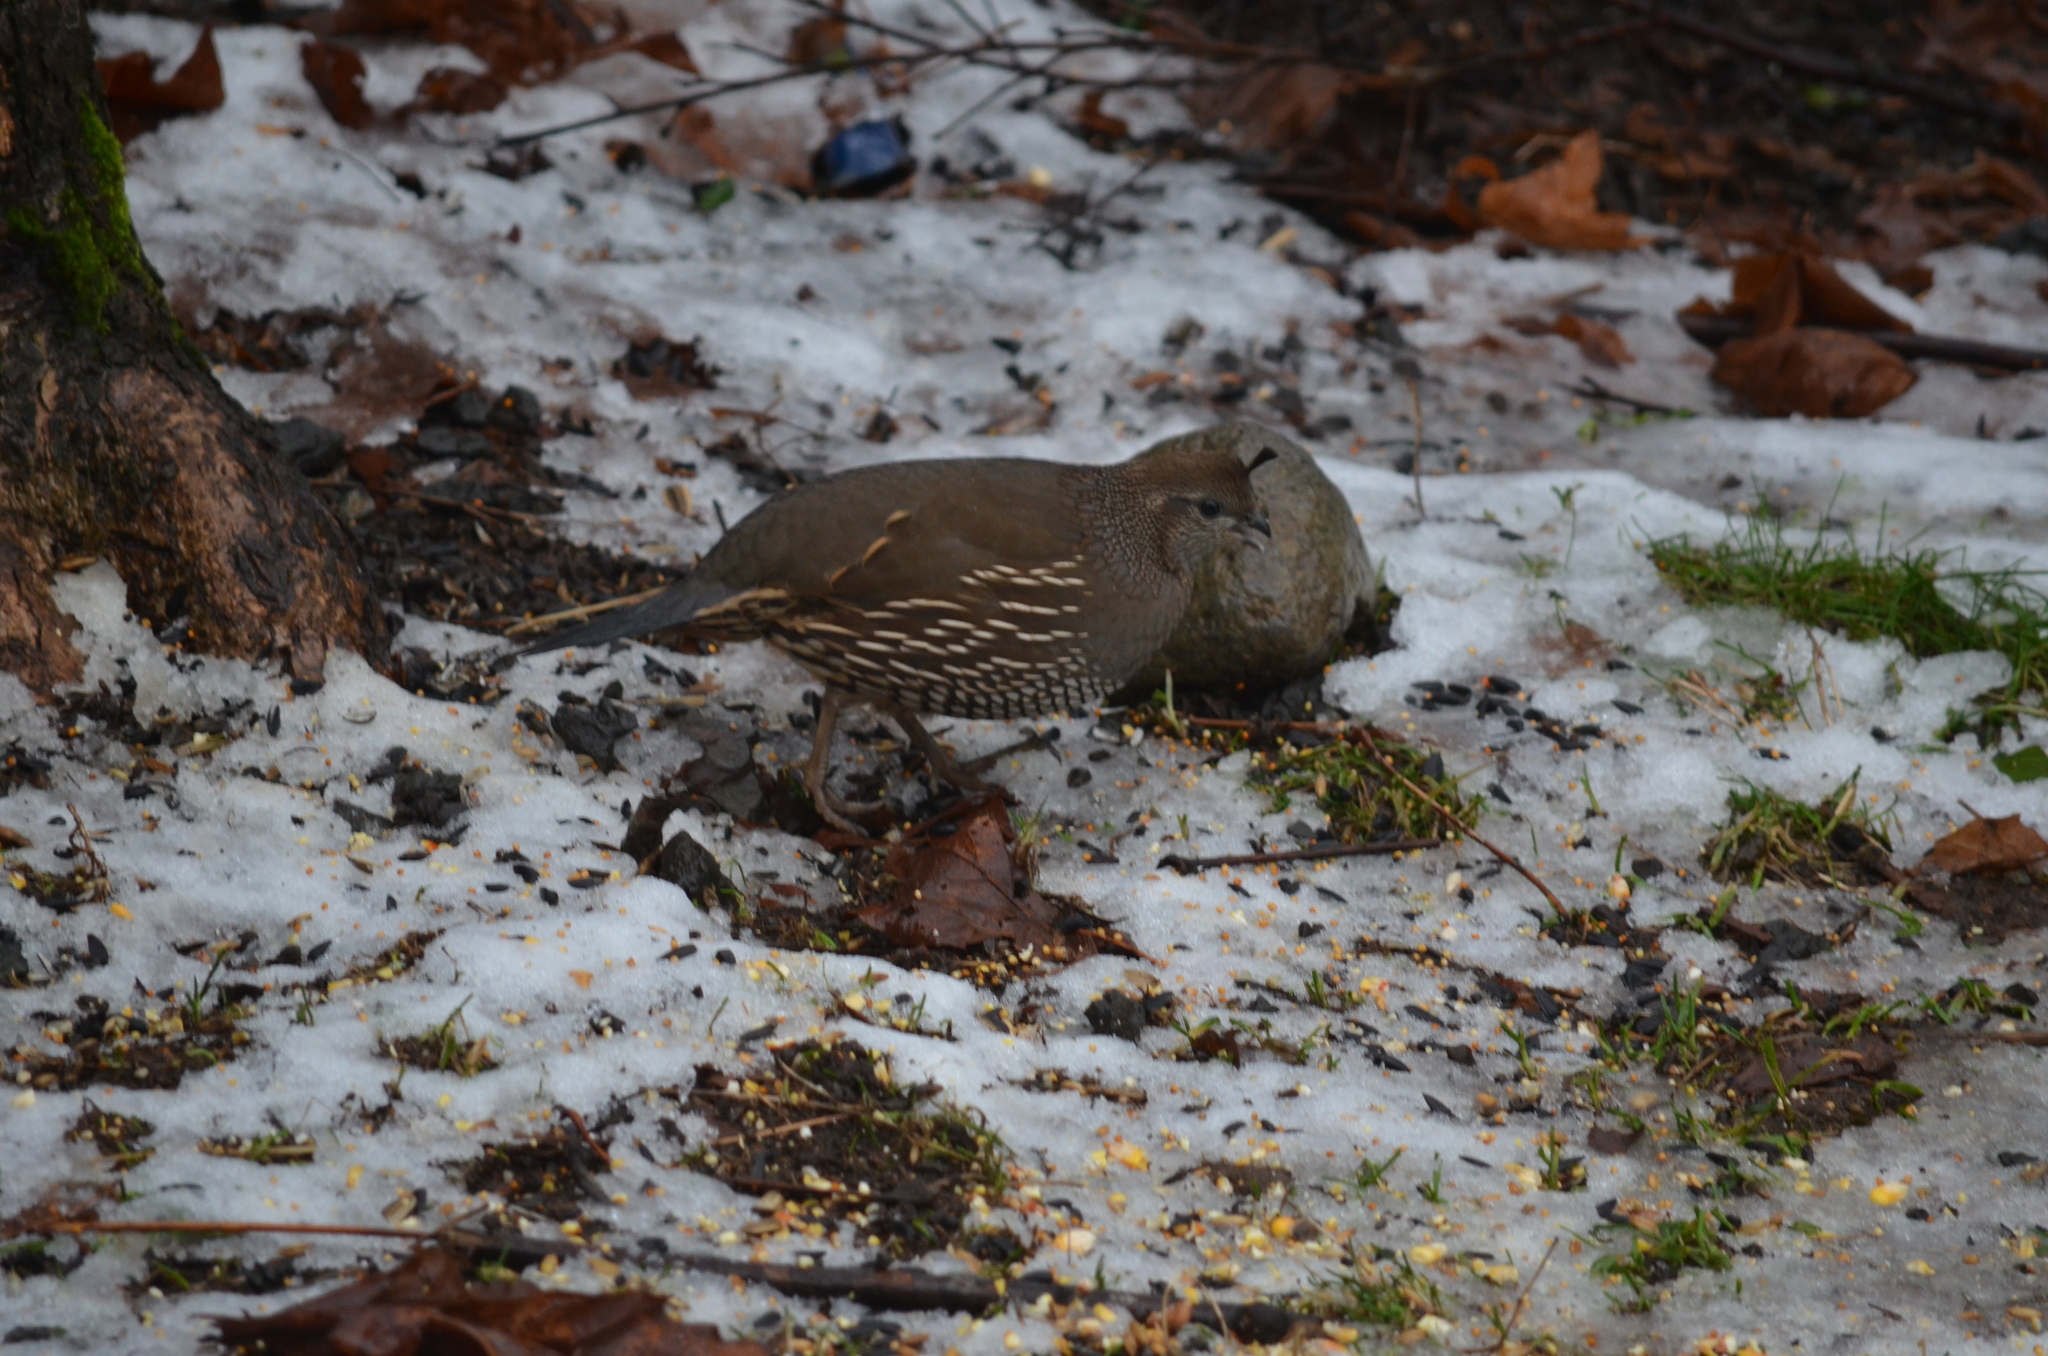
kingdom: Animalia
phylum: Chordata
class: Aves
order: Galliformes
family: Odontophoridae
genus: Callipepla
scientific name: Callipepla californica
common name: California quail
